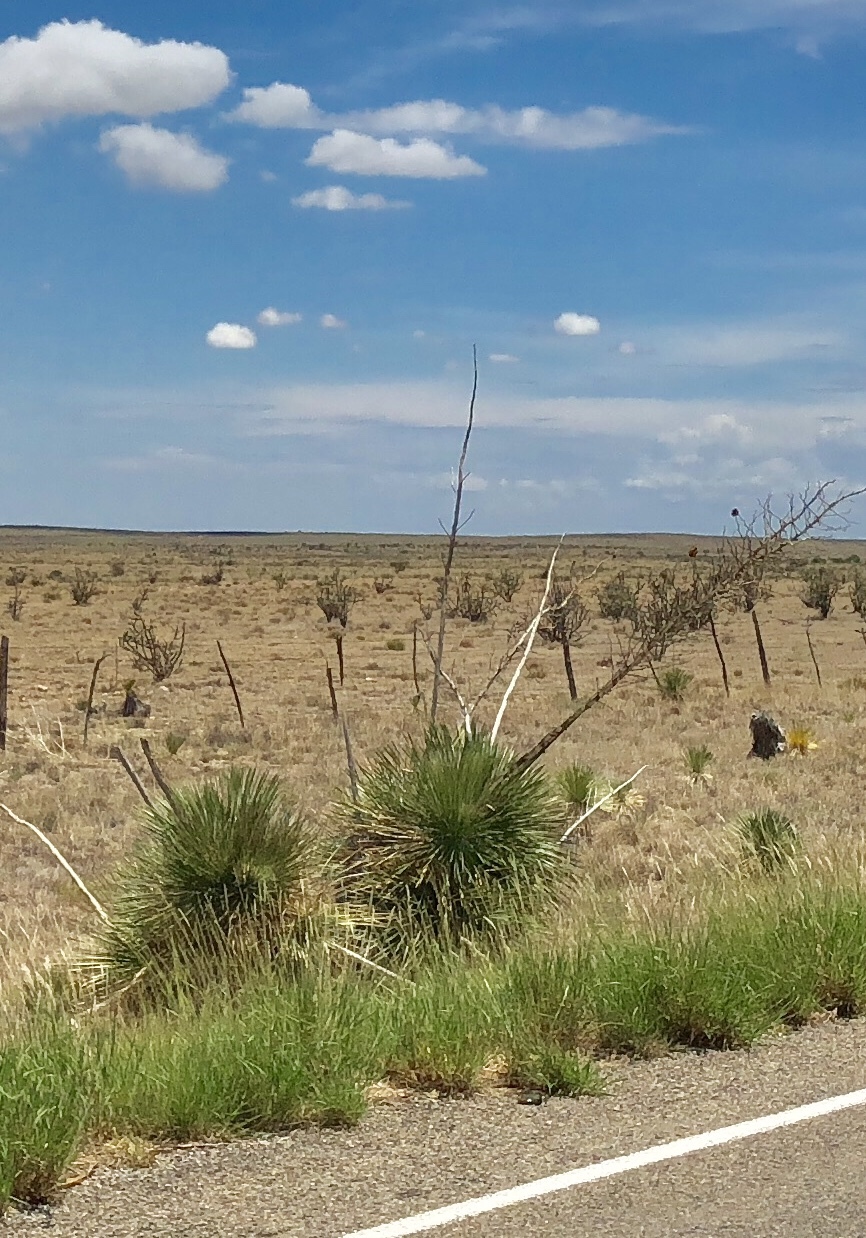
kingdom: Plantae
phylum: Tracheophyta
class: Liliopsida
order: Asparagales
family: Asparagaceae
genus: Yucca
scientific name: Yucca elata
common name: Palmella
